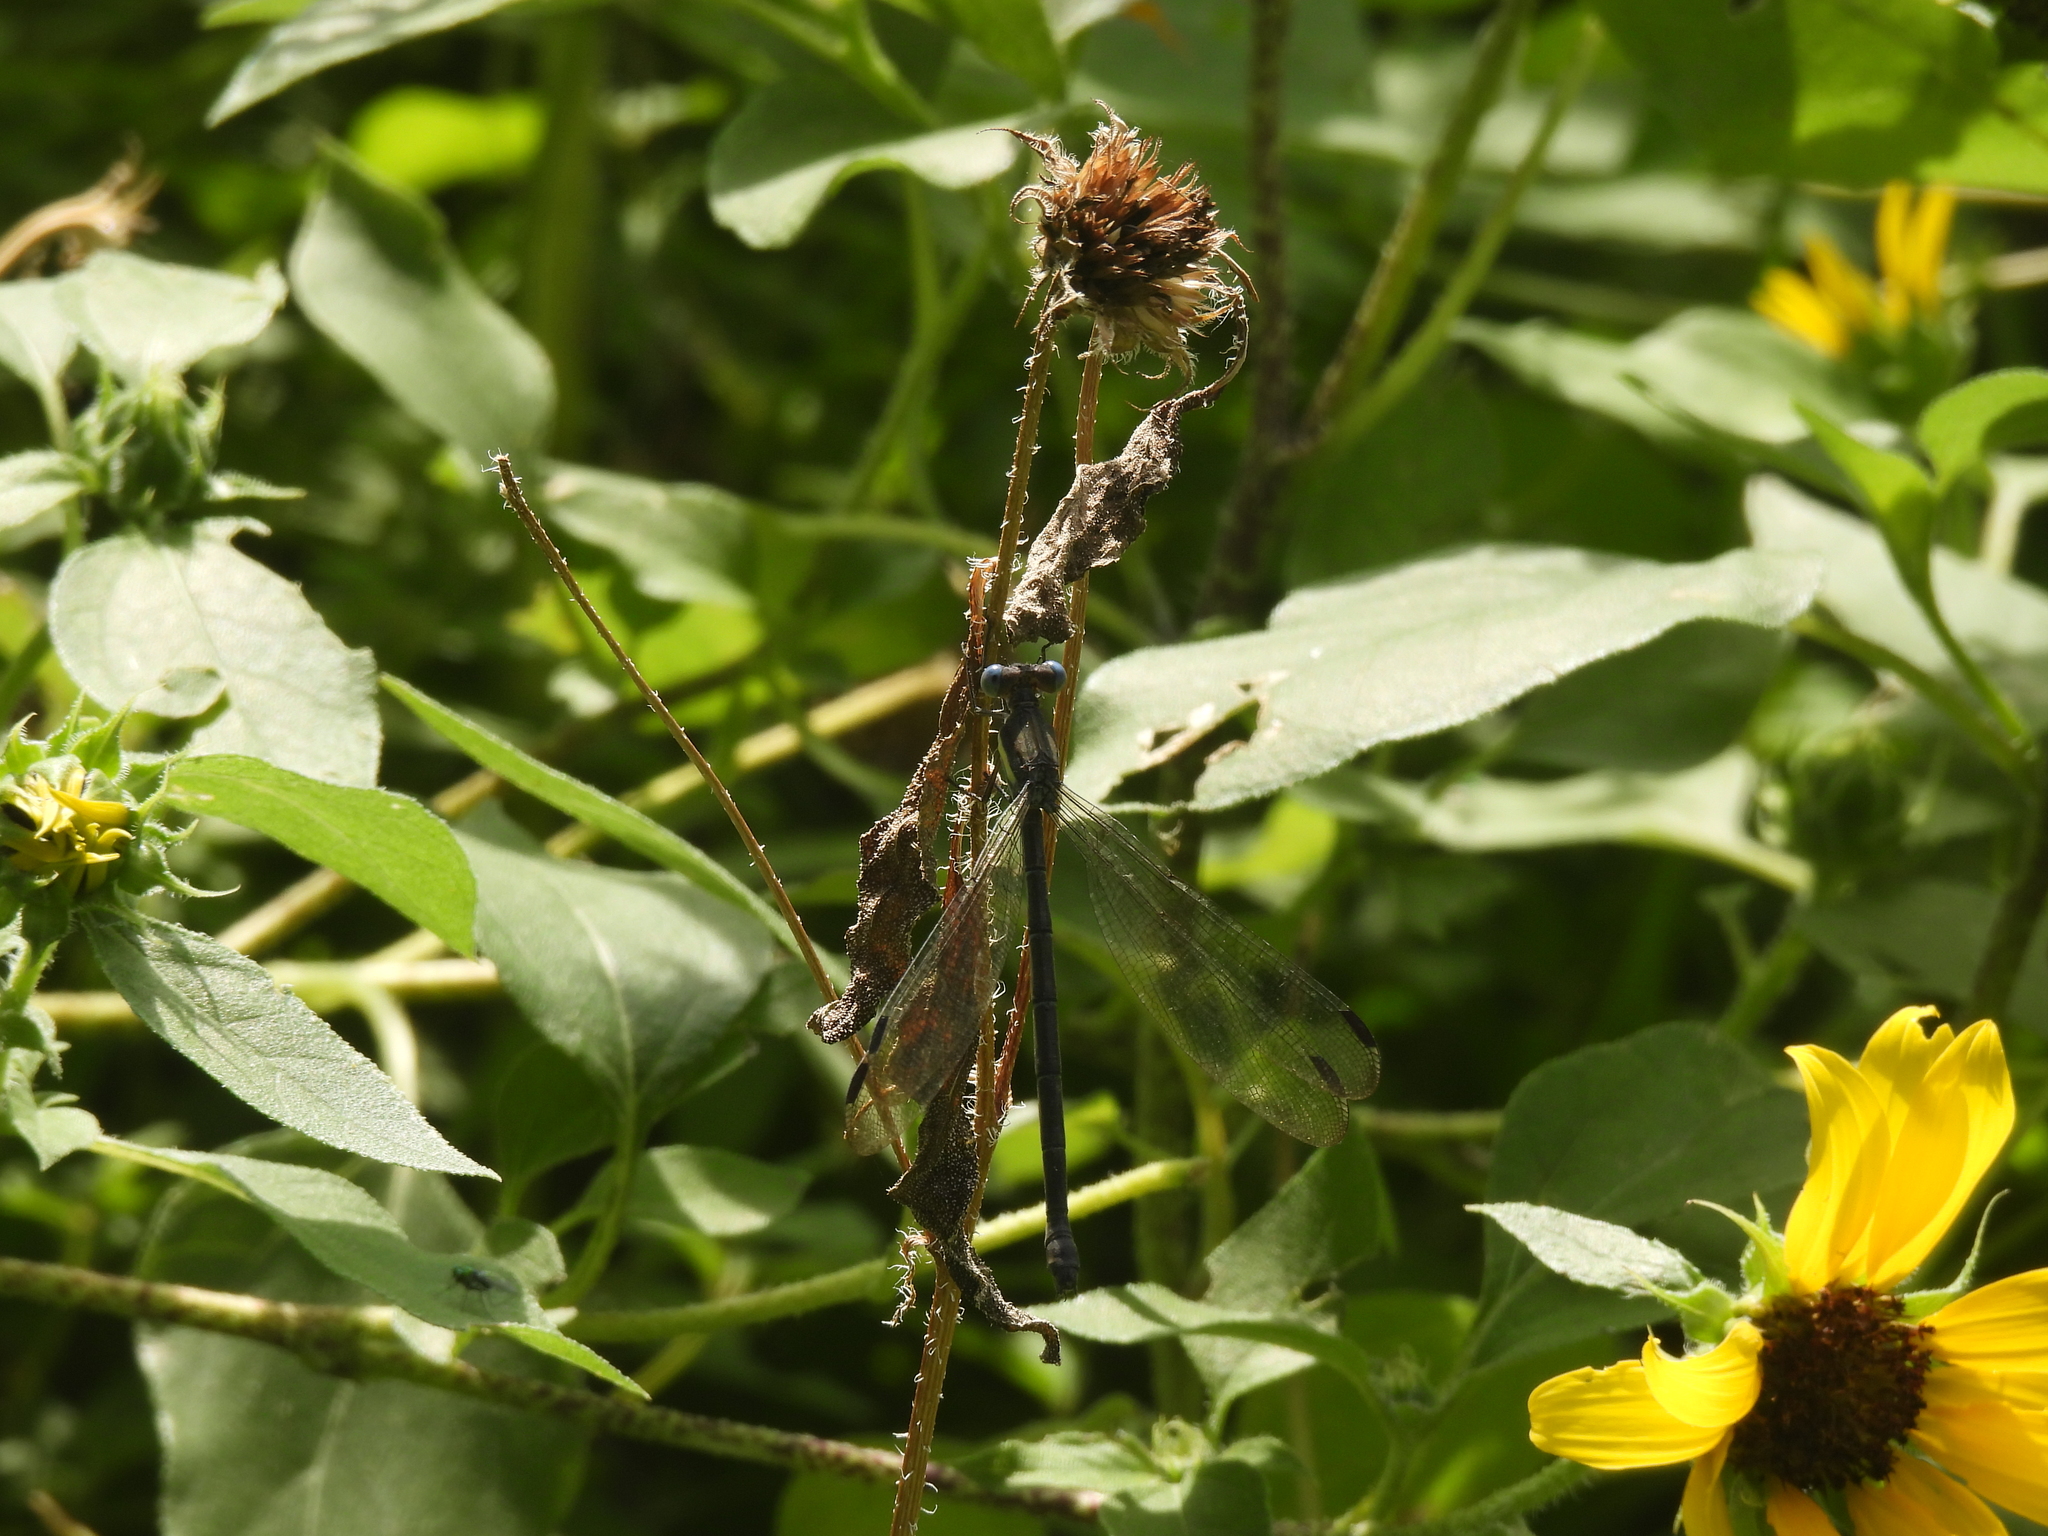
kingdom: Animalia
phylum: Arthropoda
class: Insecta
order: Odonata
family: Lestidae
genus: Archilestes
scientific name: Archilestes grandis
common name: Great spreadwing
